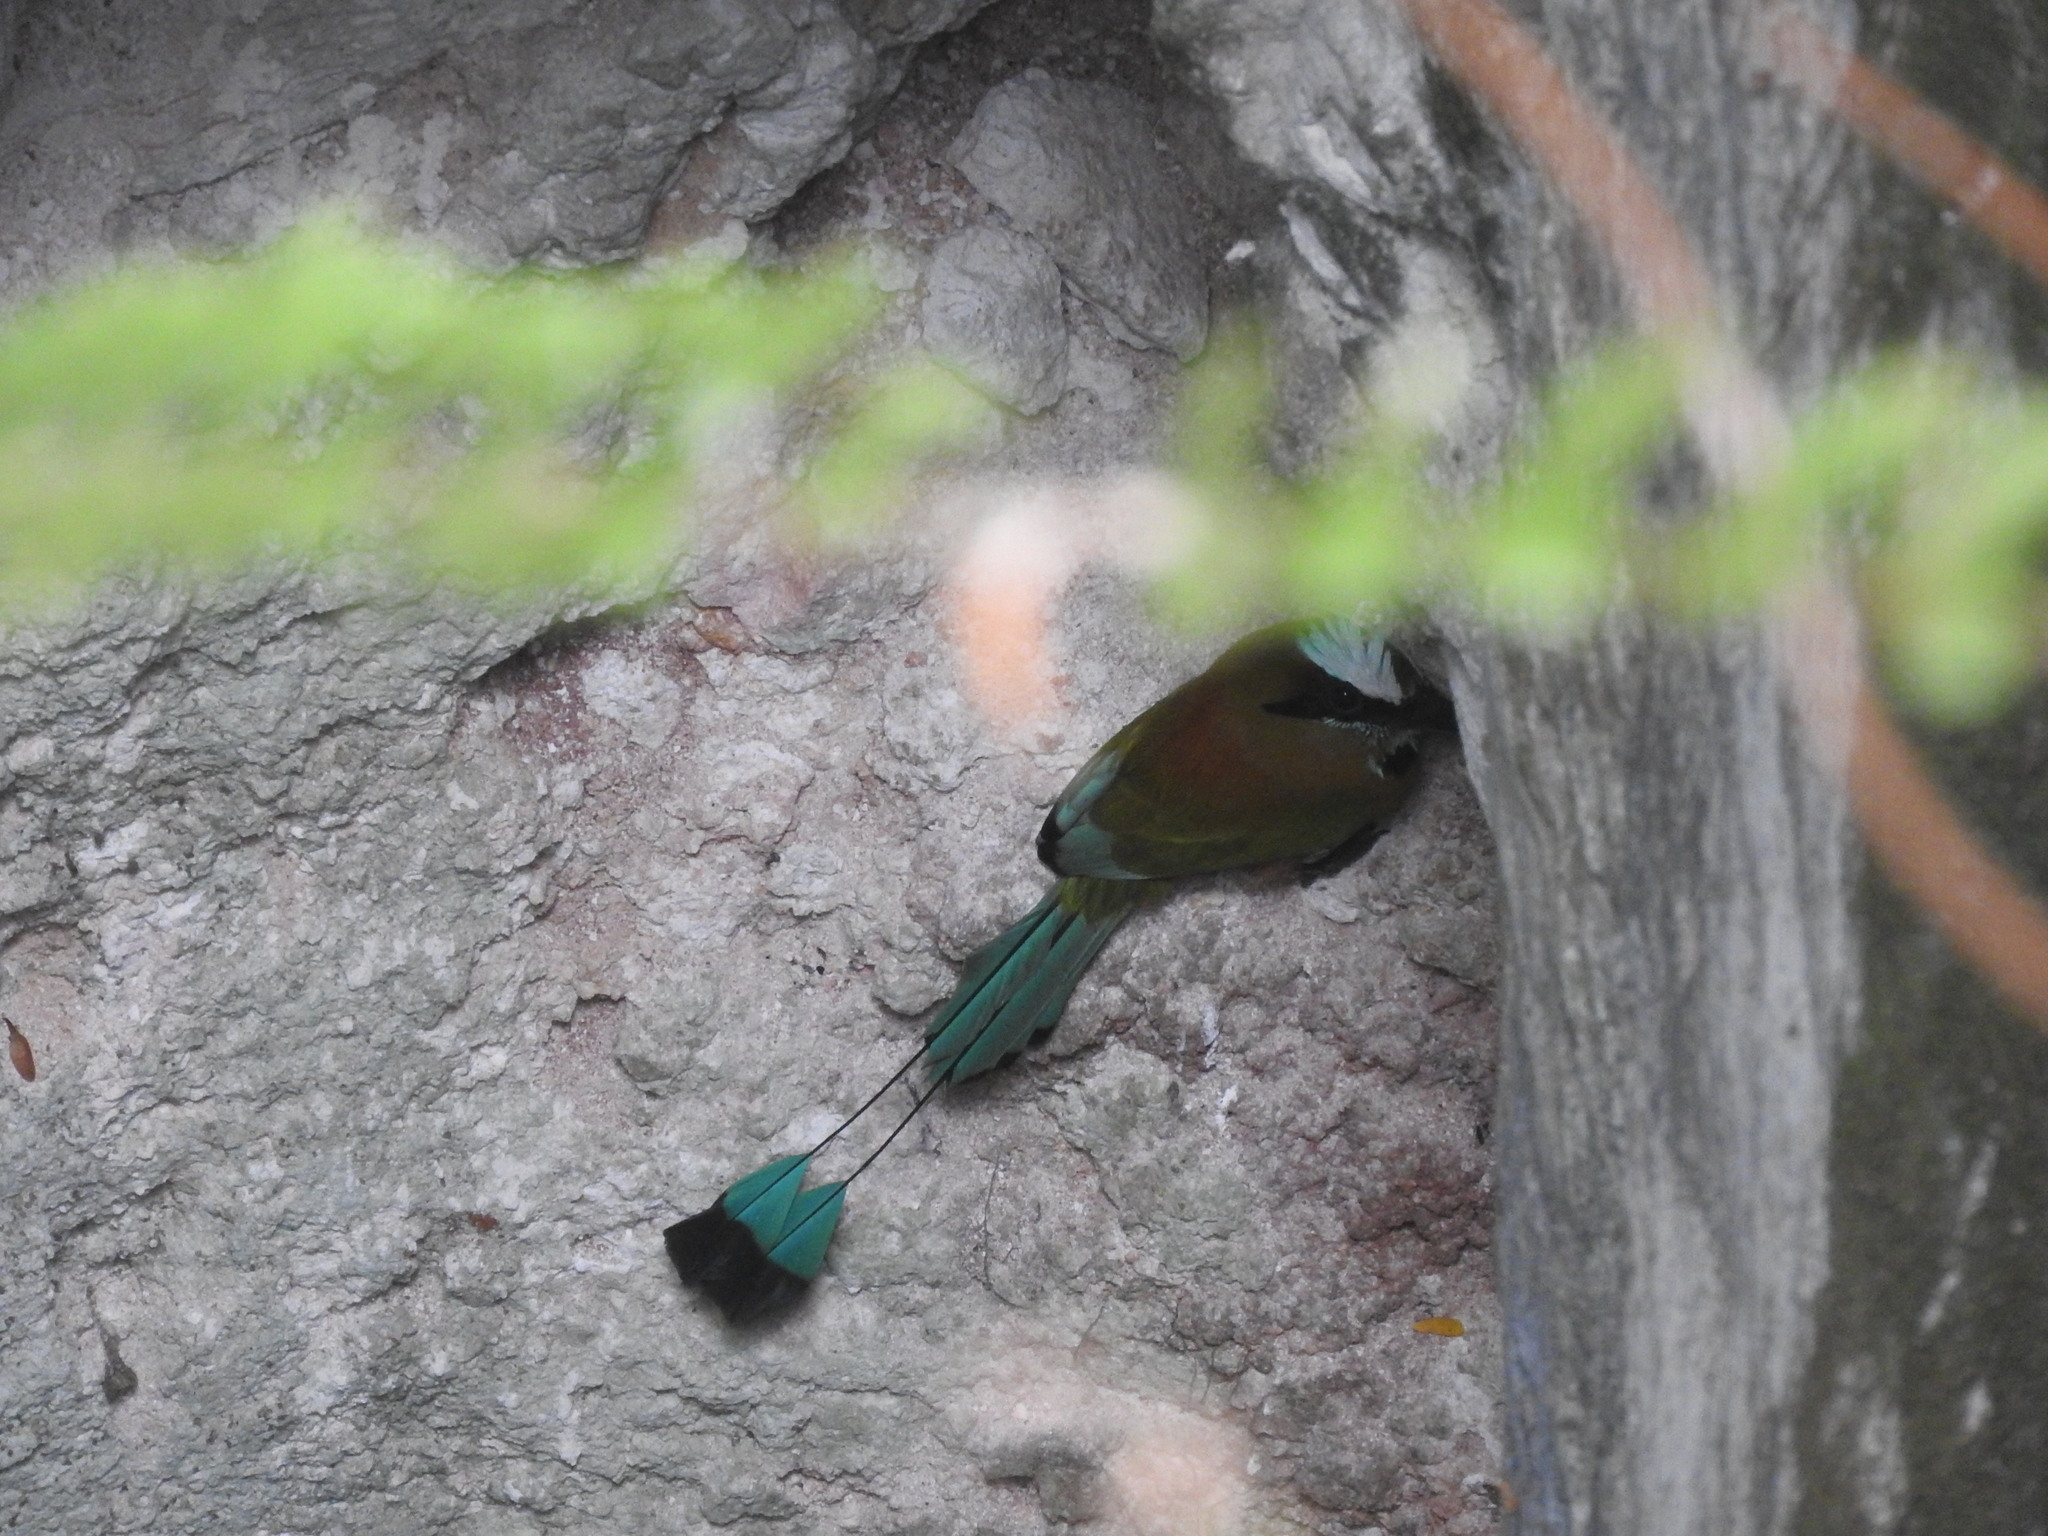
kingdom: Animalia
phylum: Chordata
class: Aves
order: Coraciiformes
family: Momotidae
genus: Eumomota
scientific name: Eumomota superciliosa
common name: Turquoise-browed motmot
